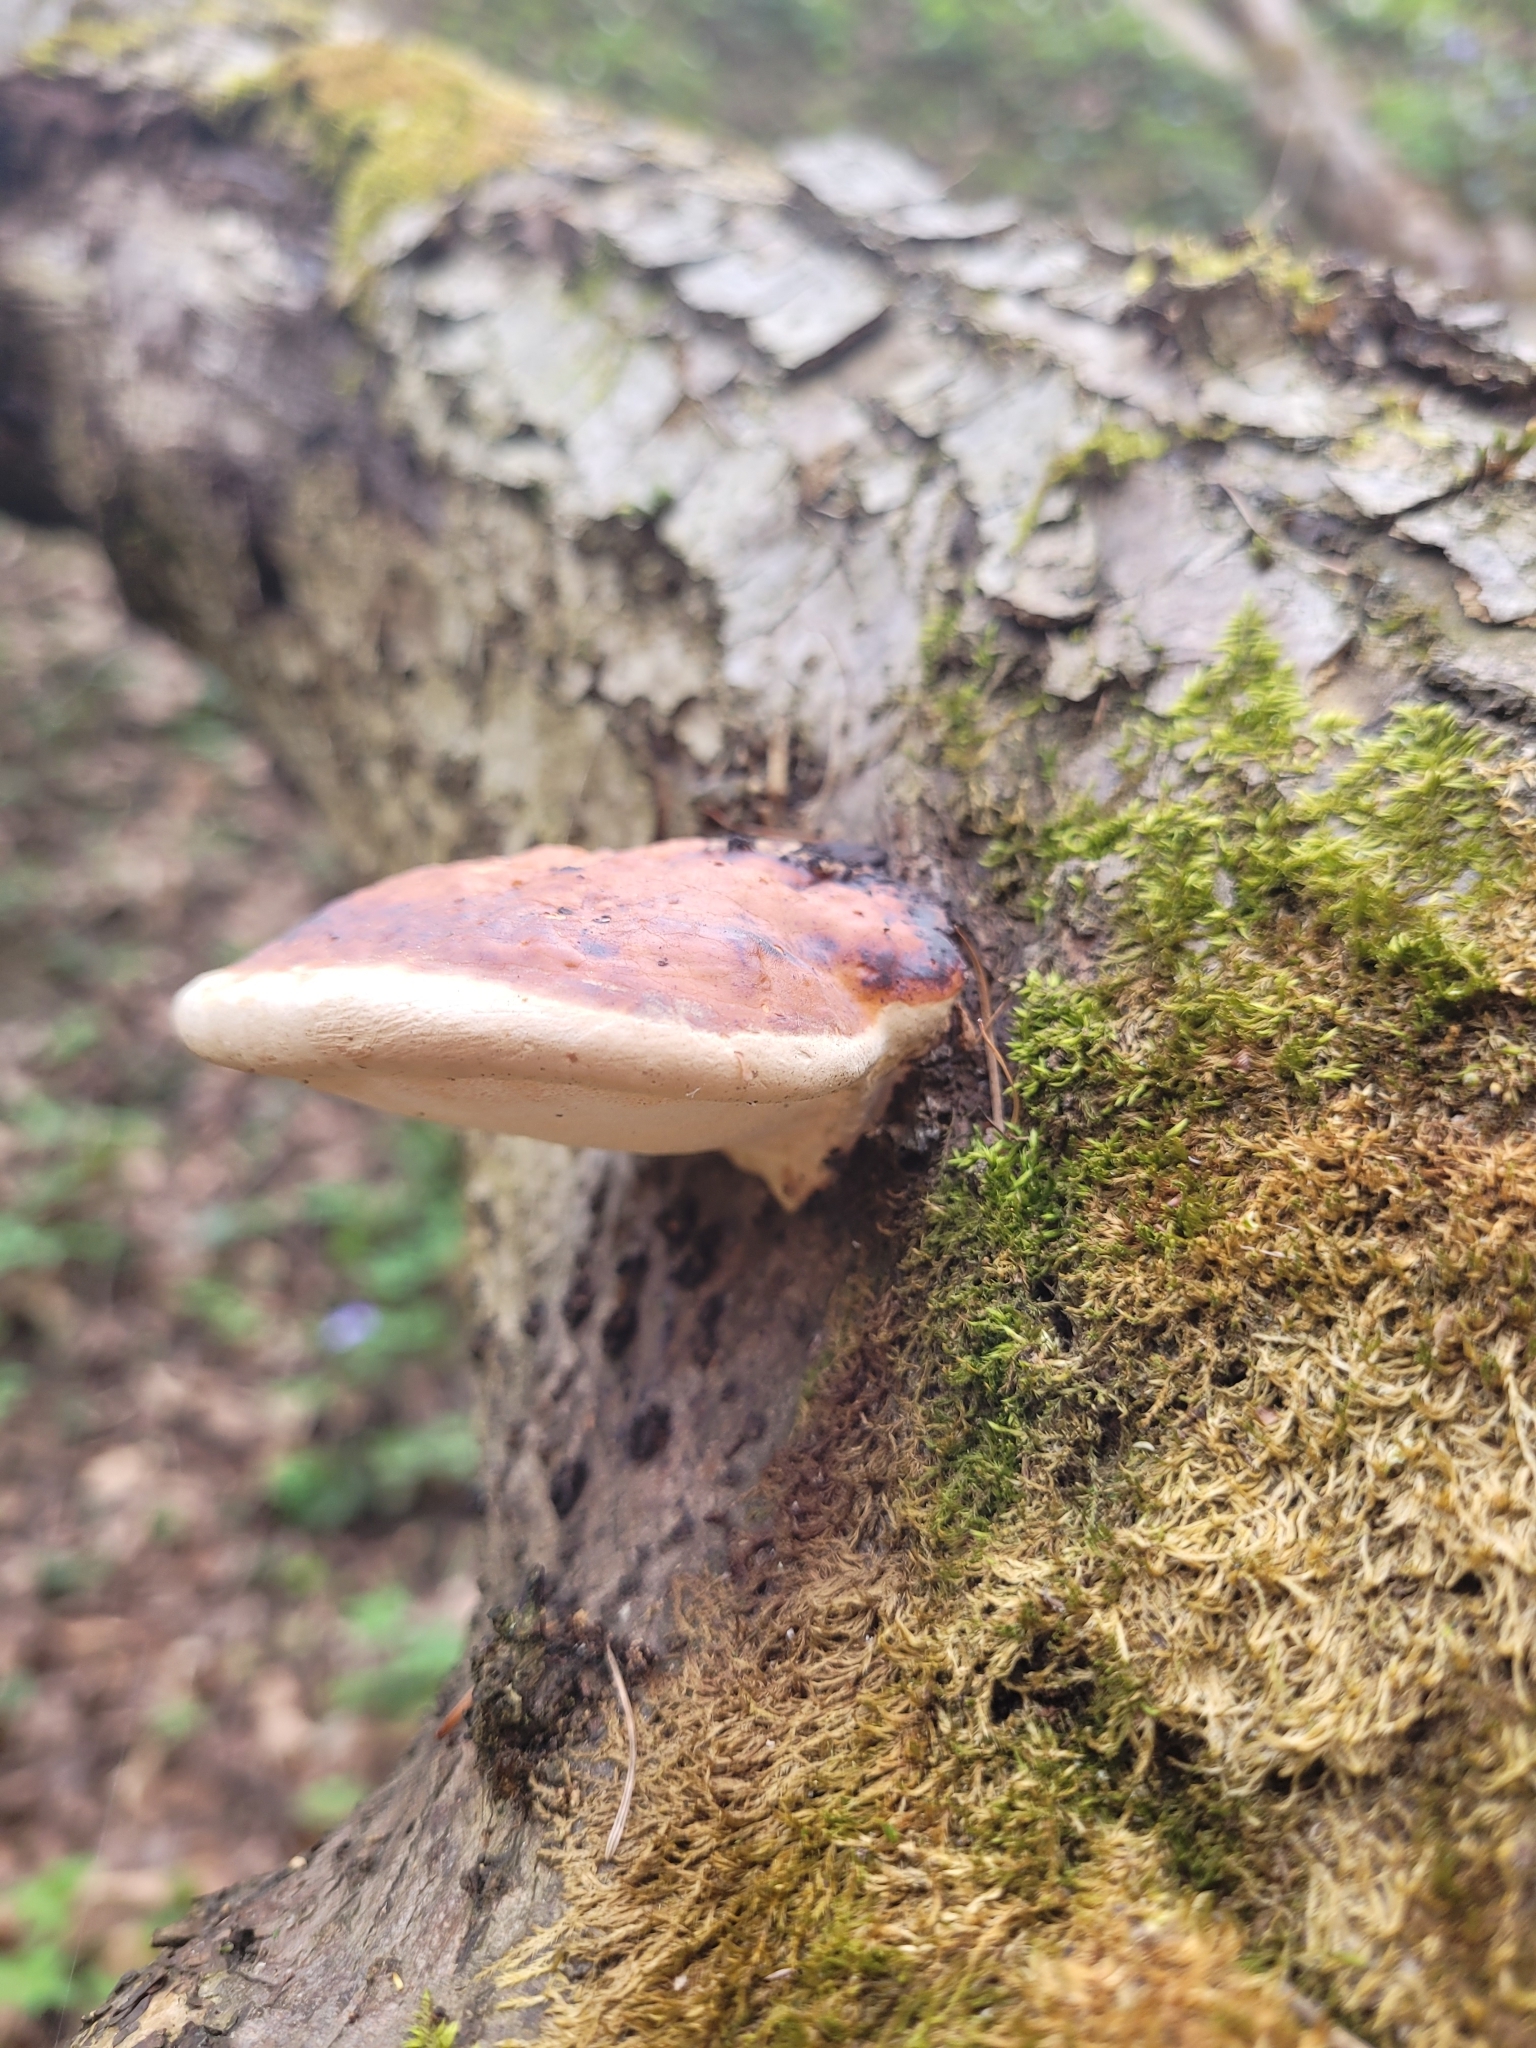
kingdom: Fungi
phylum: Basidiomycota
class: Agaricomycetes
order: Polyporales
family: Fomitopsidaceae
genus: Fomitopsis
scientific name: Fomitopsis pinicola
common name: Red-belted bracket
